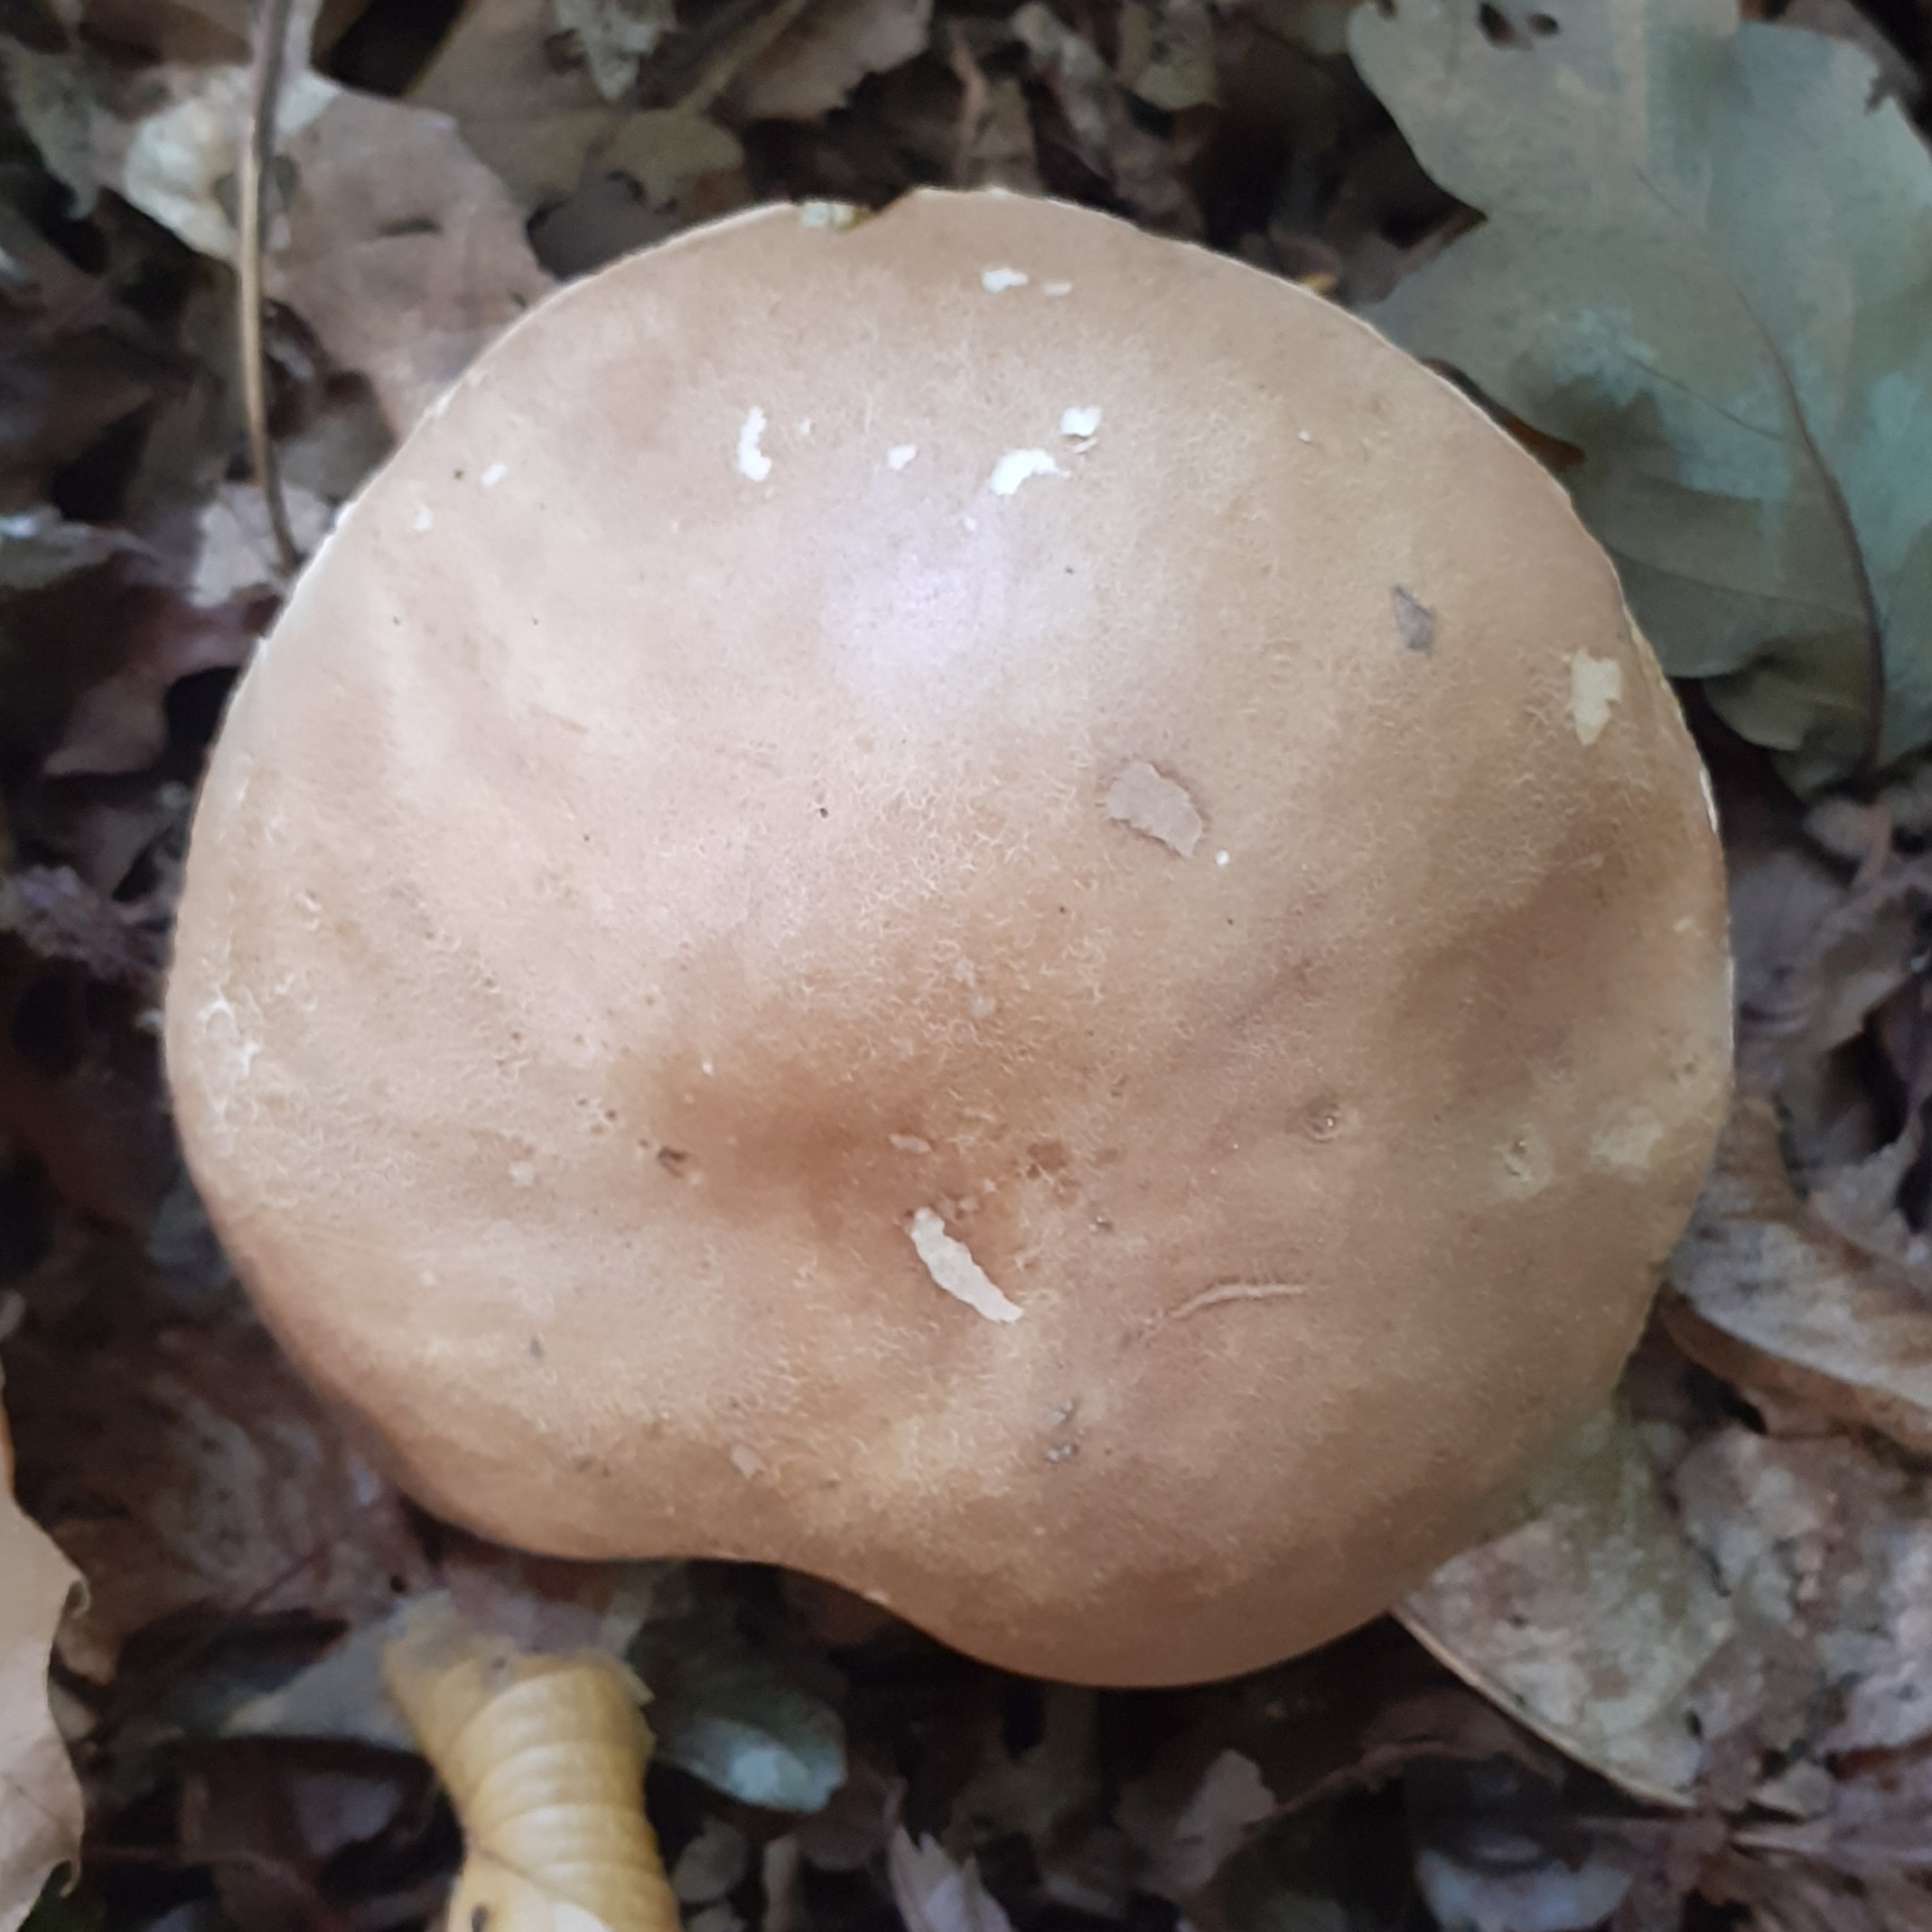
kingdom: Fungi
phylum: Basidiomycota
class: Agaricomycetes
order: Boletales
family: Boletaceae
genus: Boletus
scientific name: Boletus reticulatus
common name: Summer bolete
